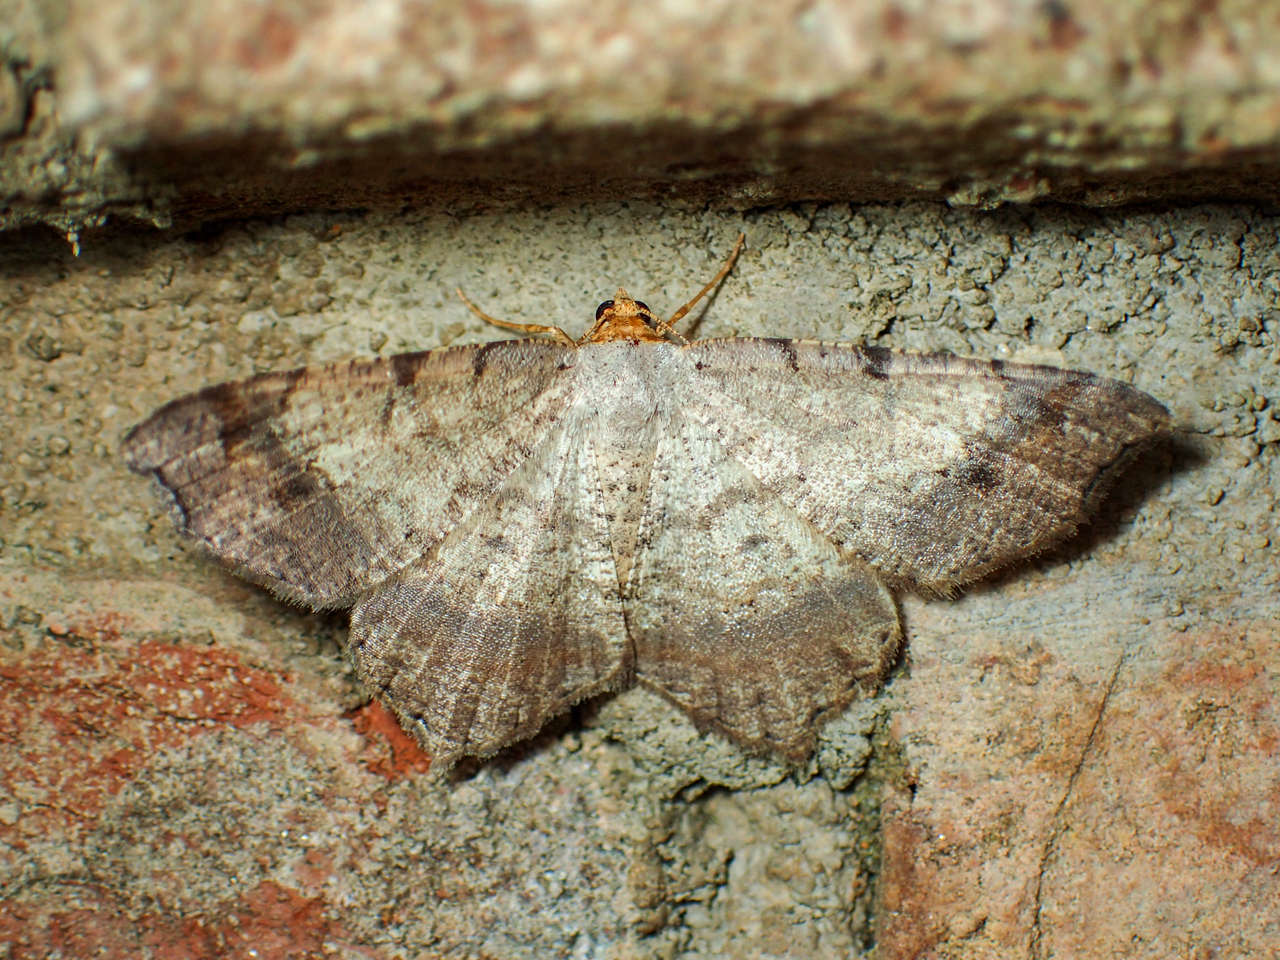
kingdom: Animalia
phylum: Arthropoda
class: Insecta
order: Lepidoptera
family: Geometridae
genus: Macaria
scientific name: Macaria bicolorata
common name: Dingy angle
